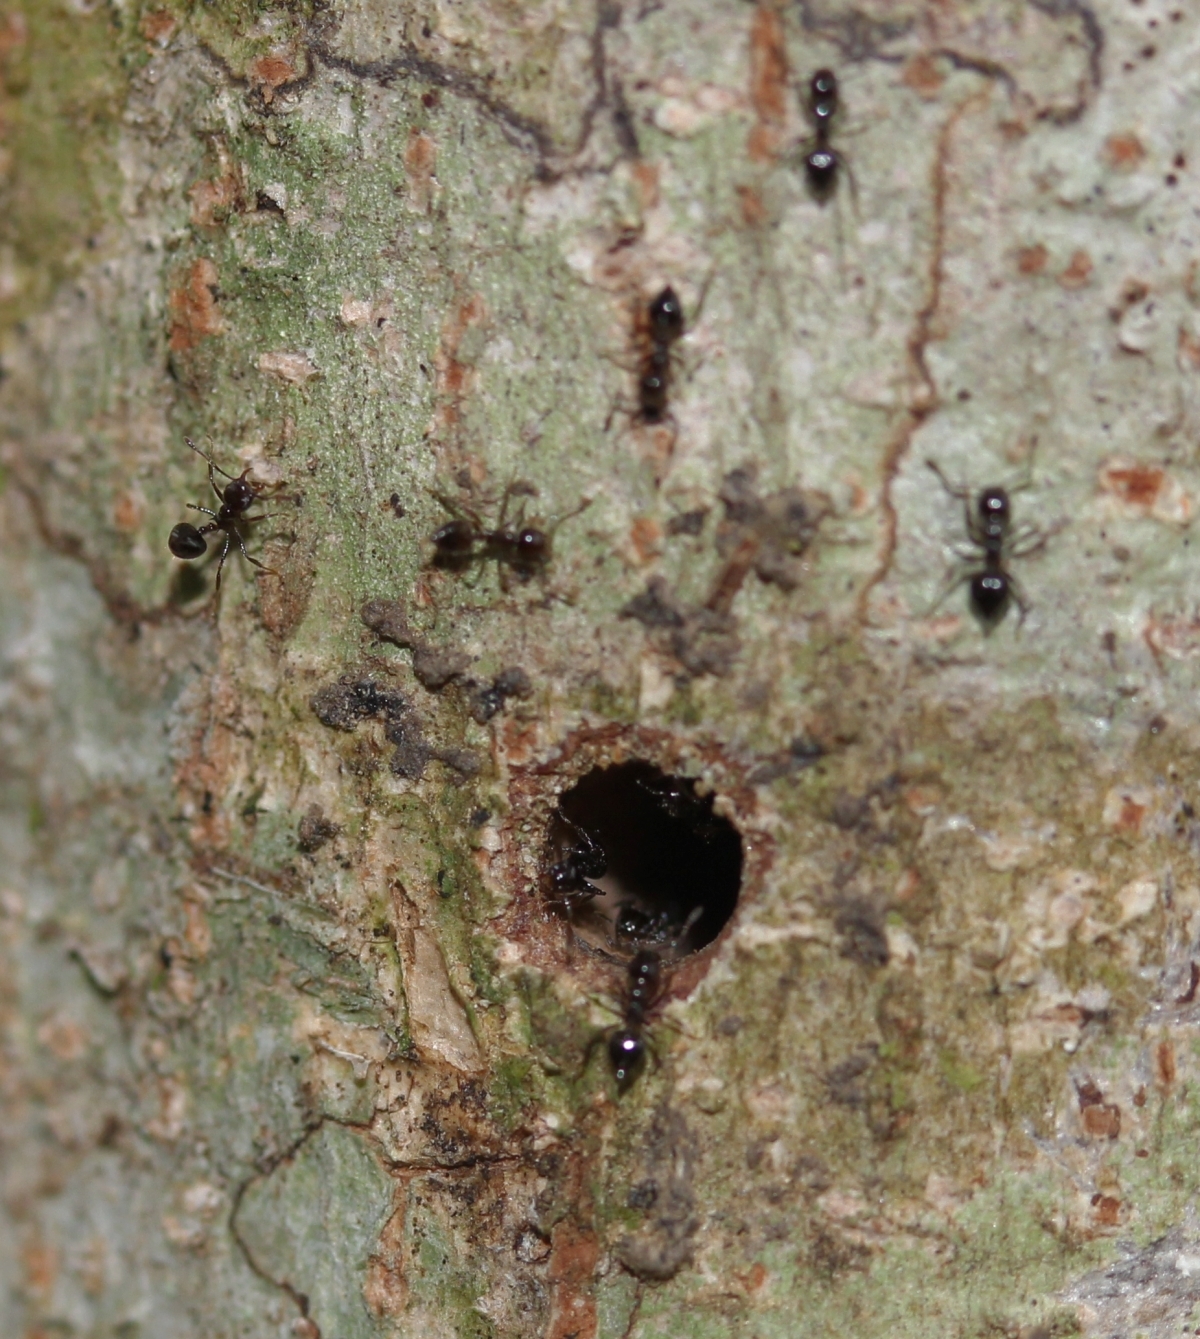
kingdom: Animalia
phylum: Arthropoda
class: Insecta
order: Hymenoptera
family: Formicidae
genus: Orthocrema
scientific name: Orthocrema
